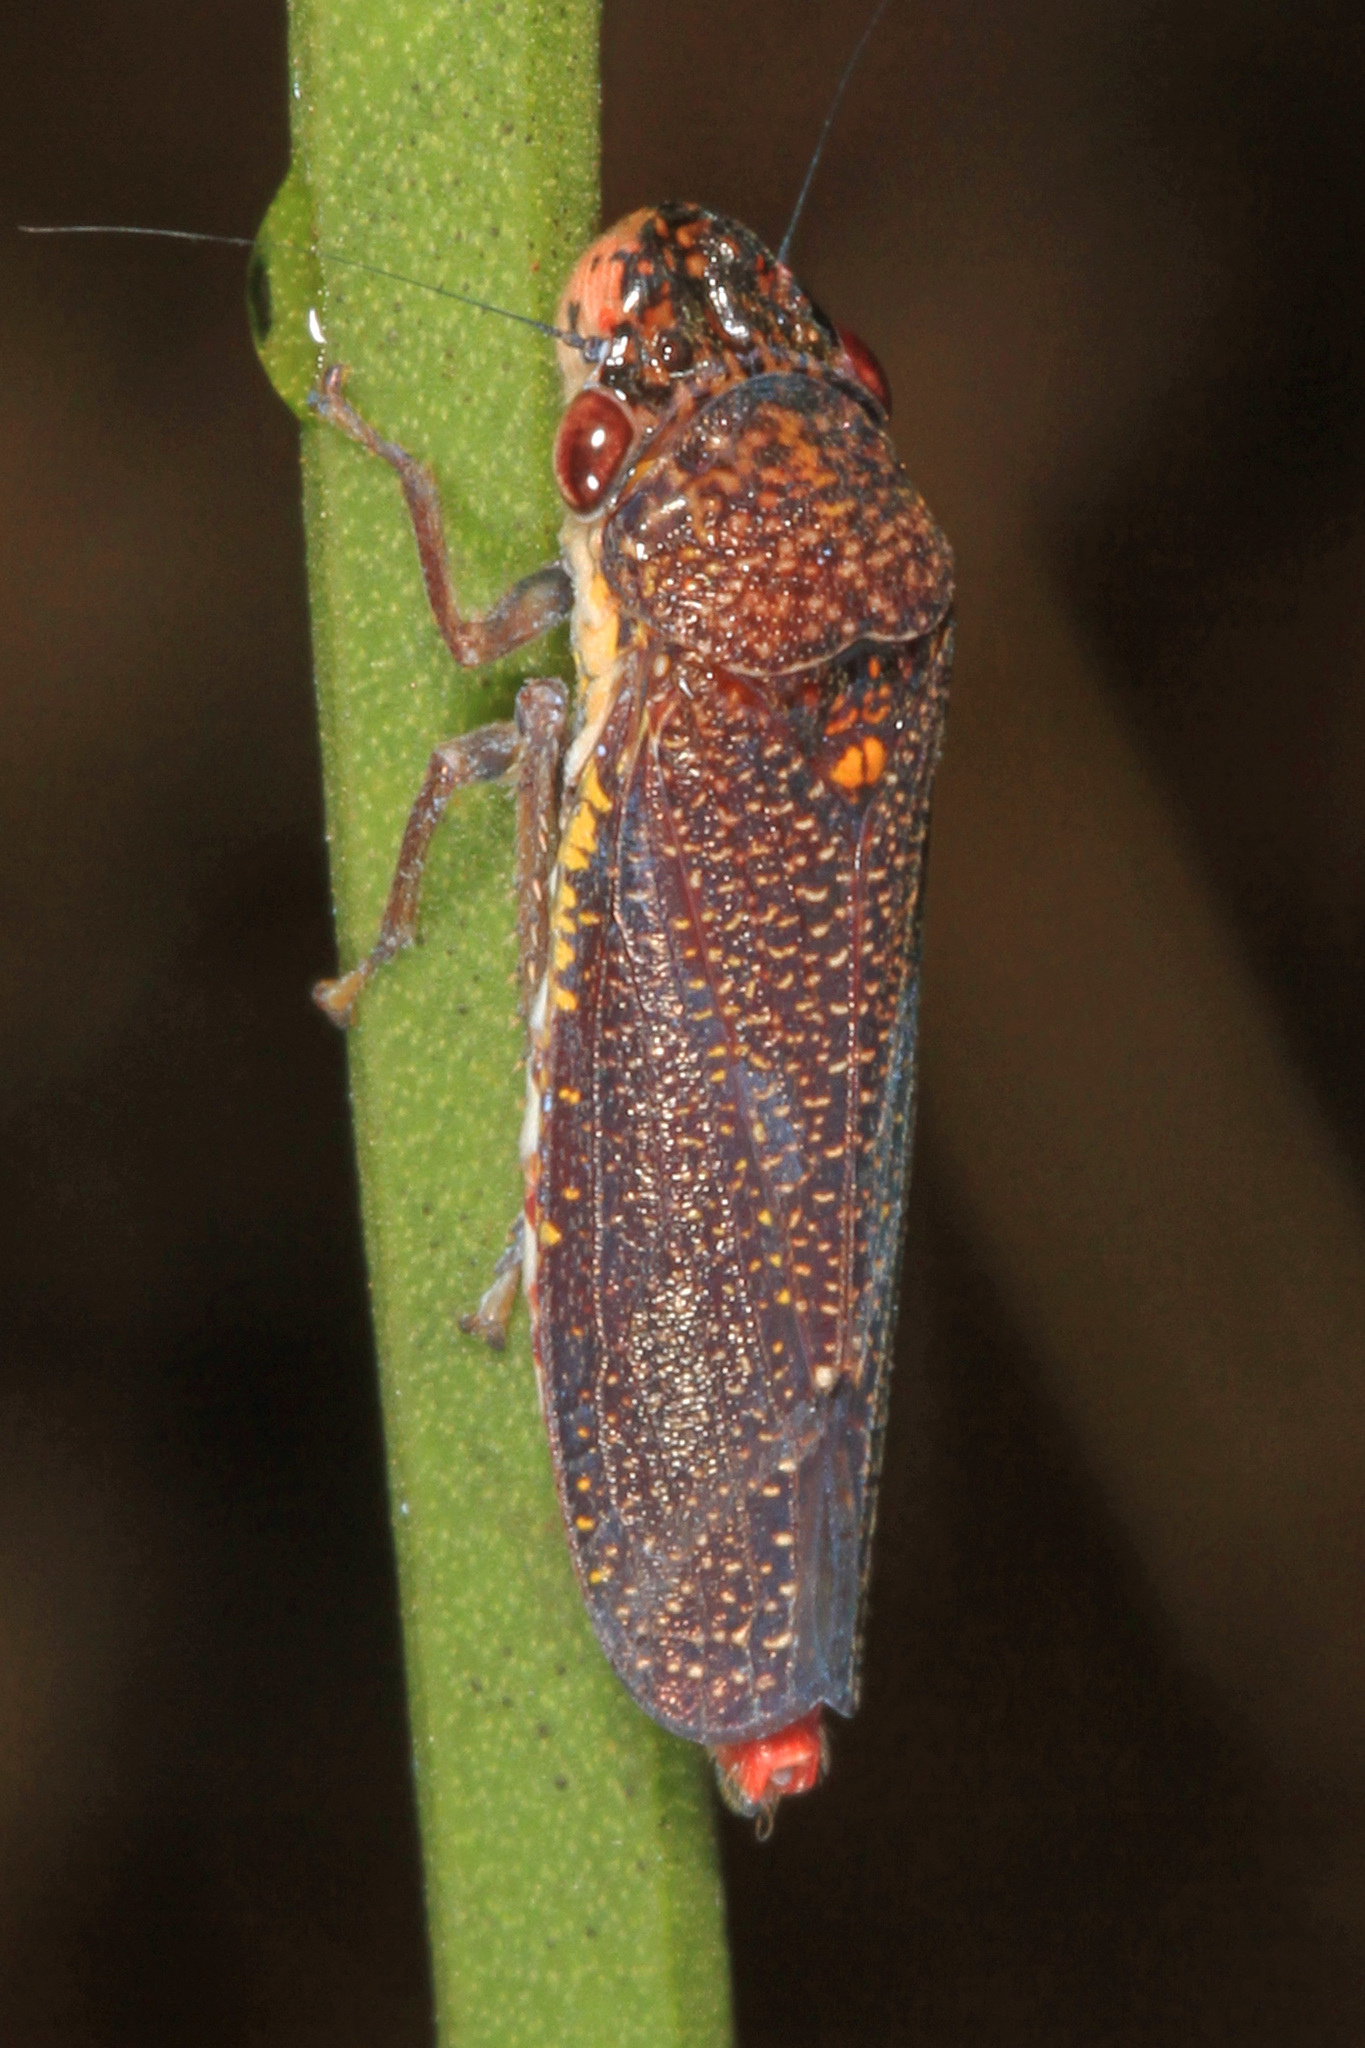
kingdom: Animalia
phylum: Arthropoda
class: Insecta
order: Hemiptera
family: Cicadellidae
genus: Paraulacizes
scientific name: Paraulacizes irrorata
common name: Speckled sharpshooter
